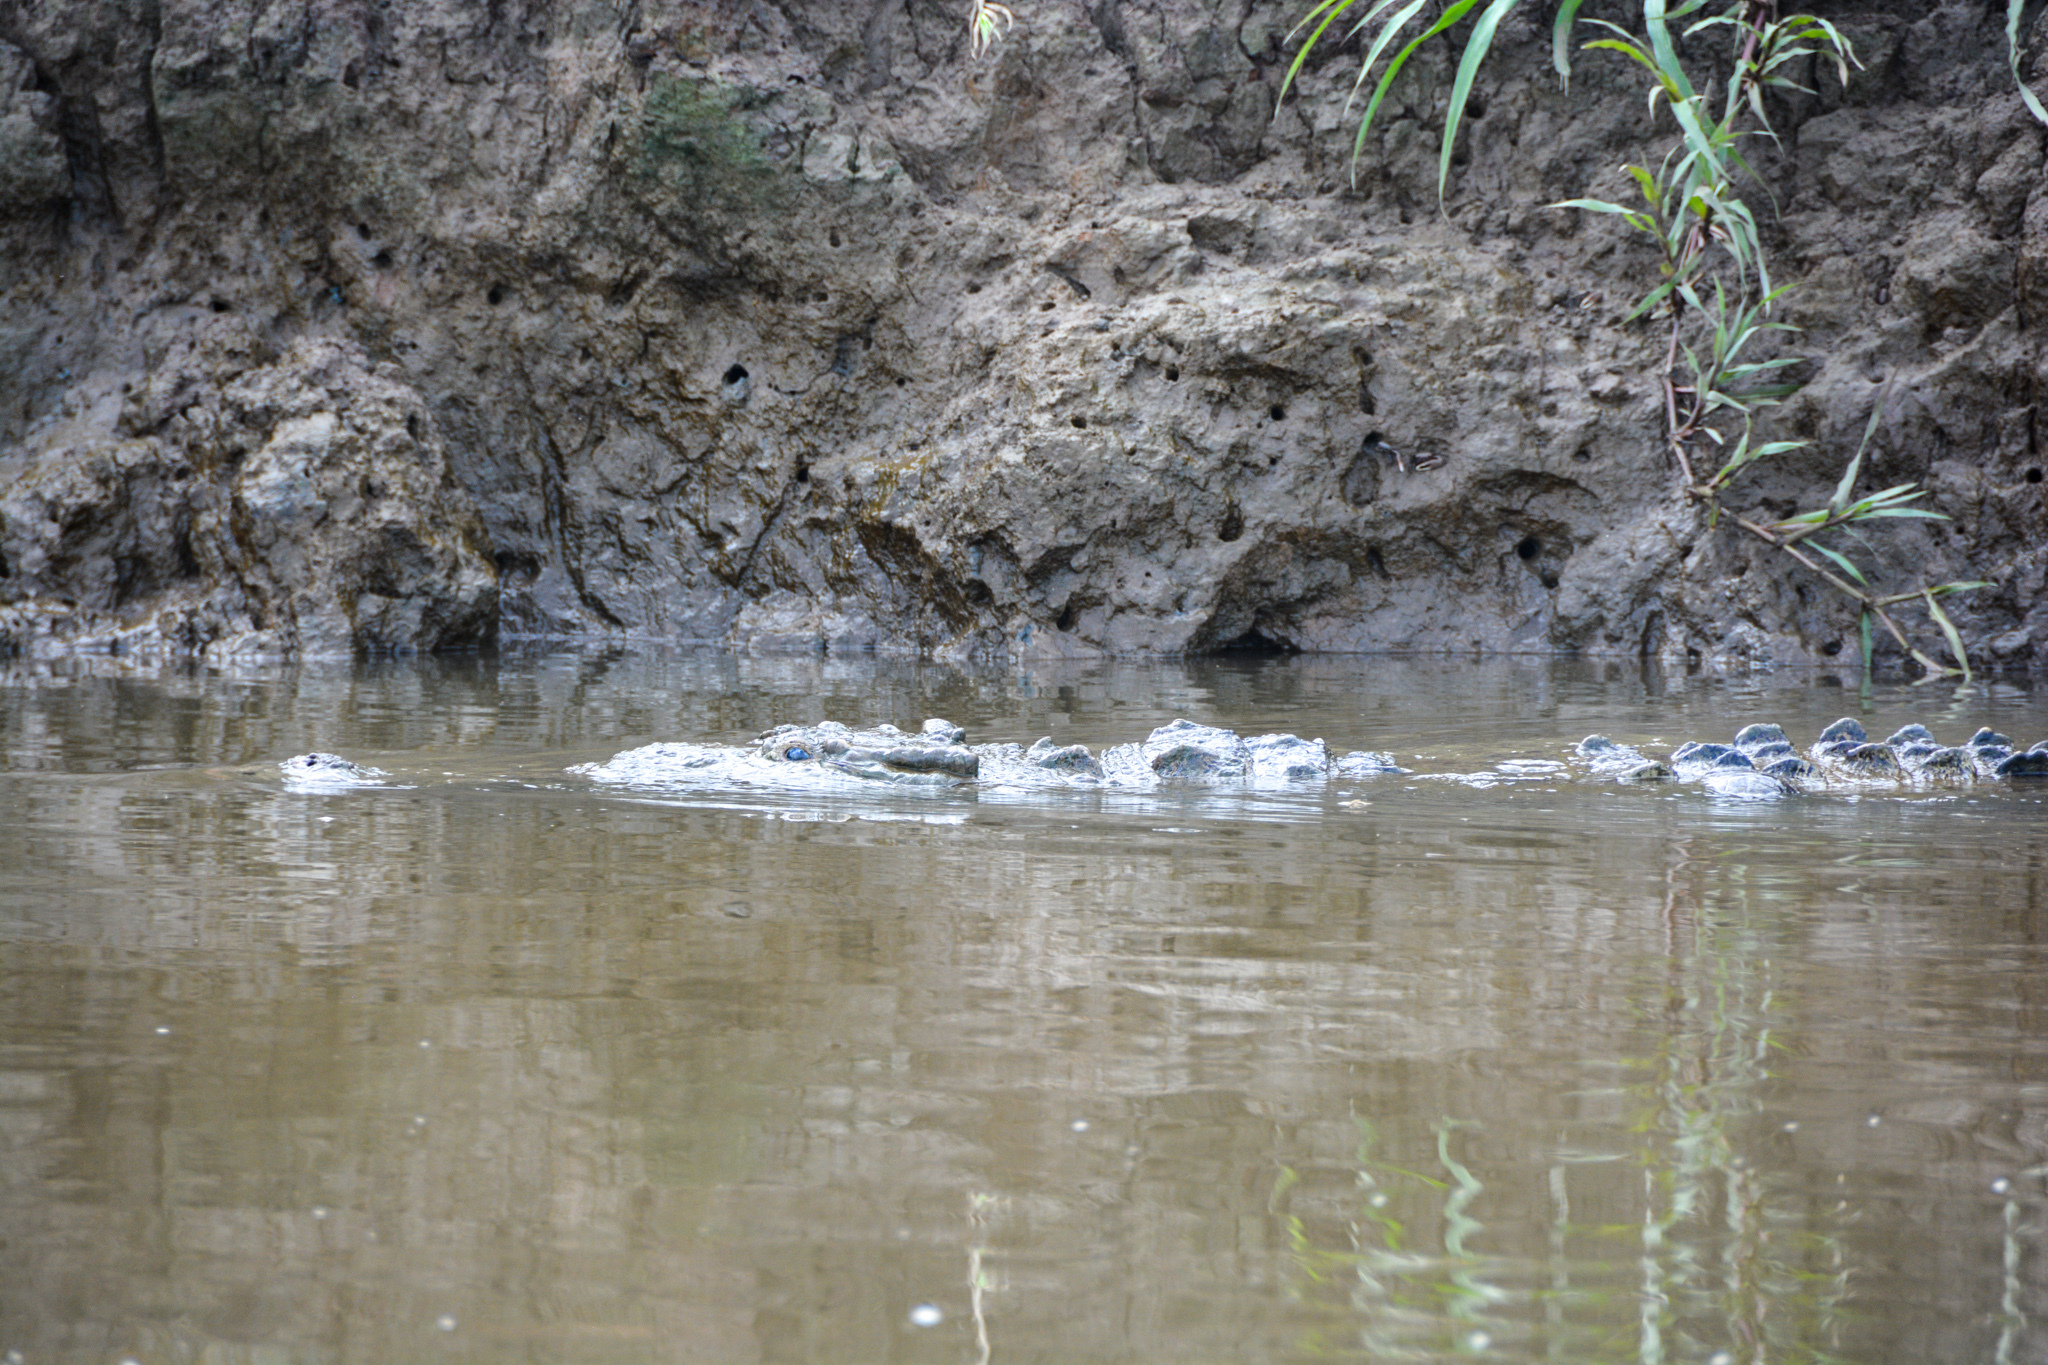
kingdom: Animalia
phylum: Chordata
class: Crocodylia
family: Crocodylidae
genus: Crocodylus
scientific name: Crocodylus acutus
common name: American crocodile
